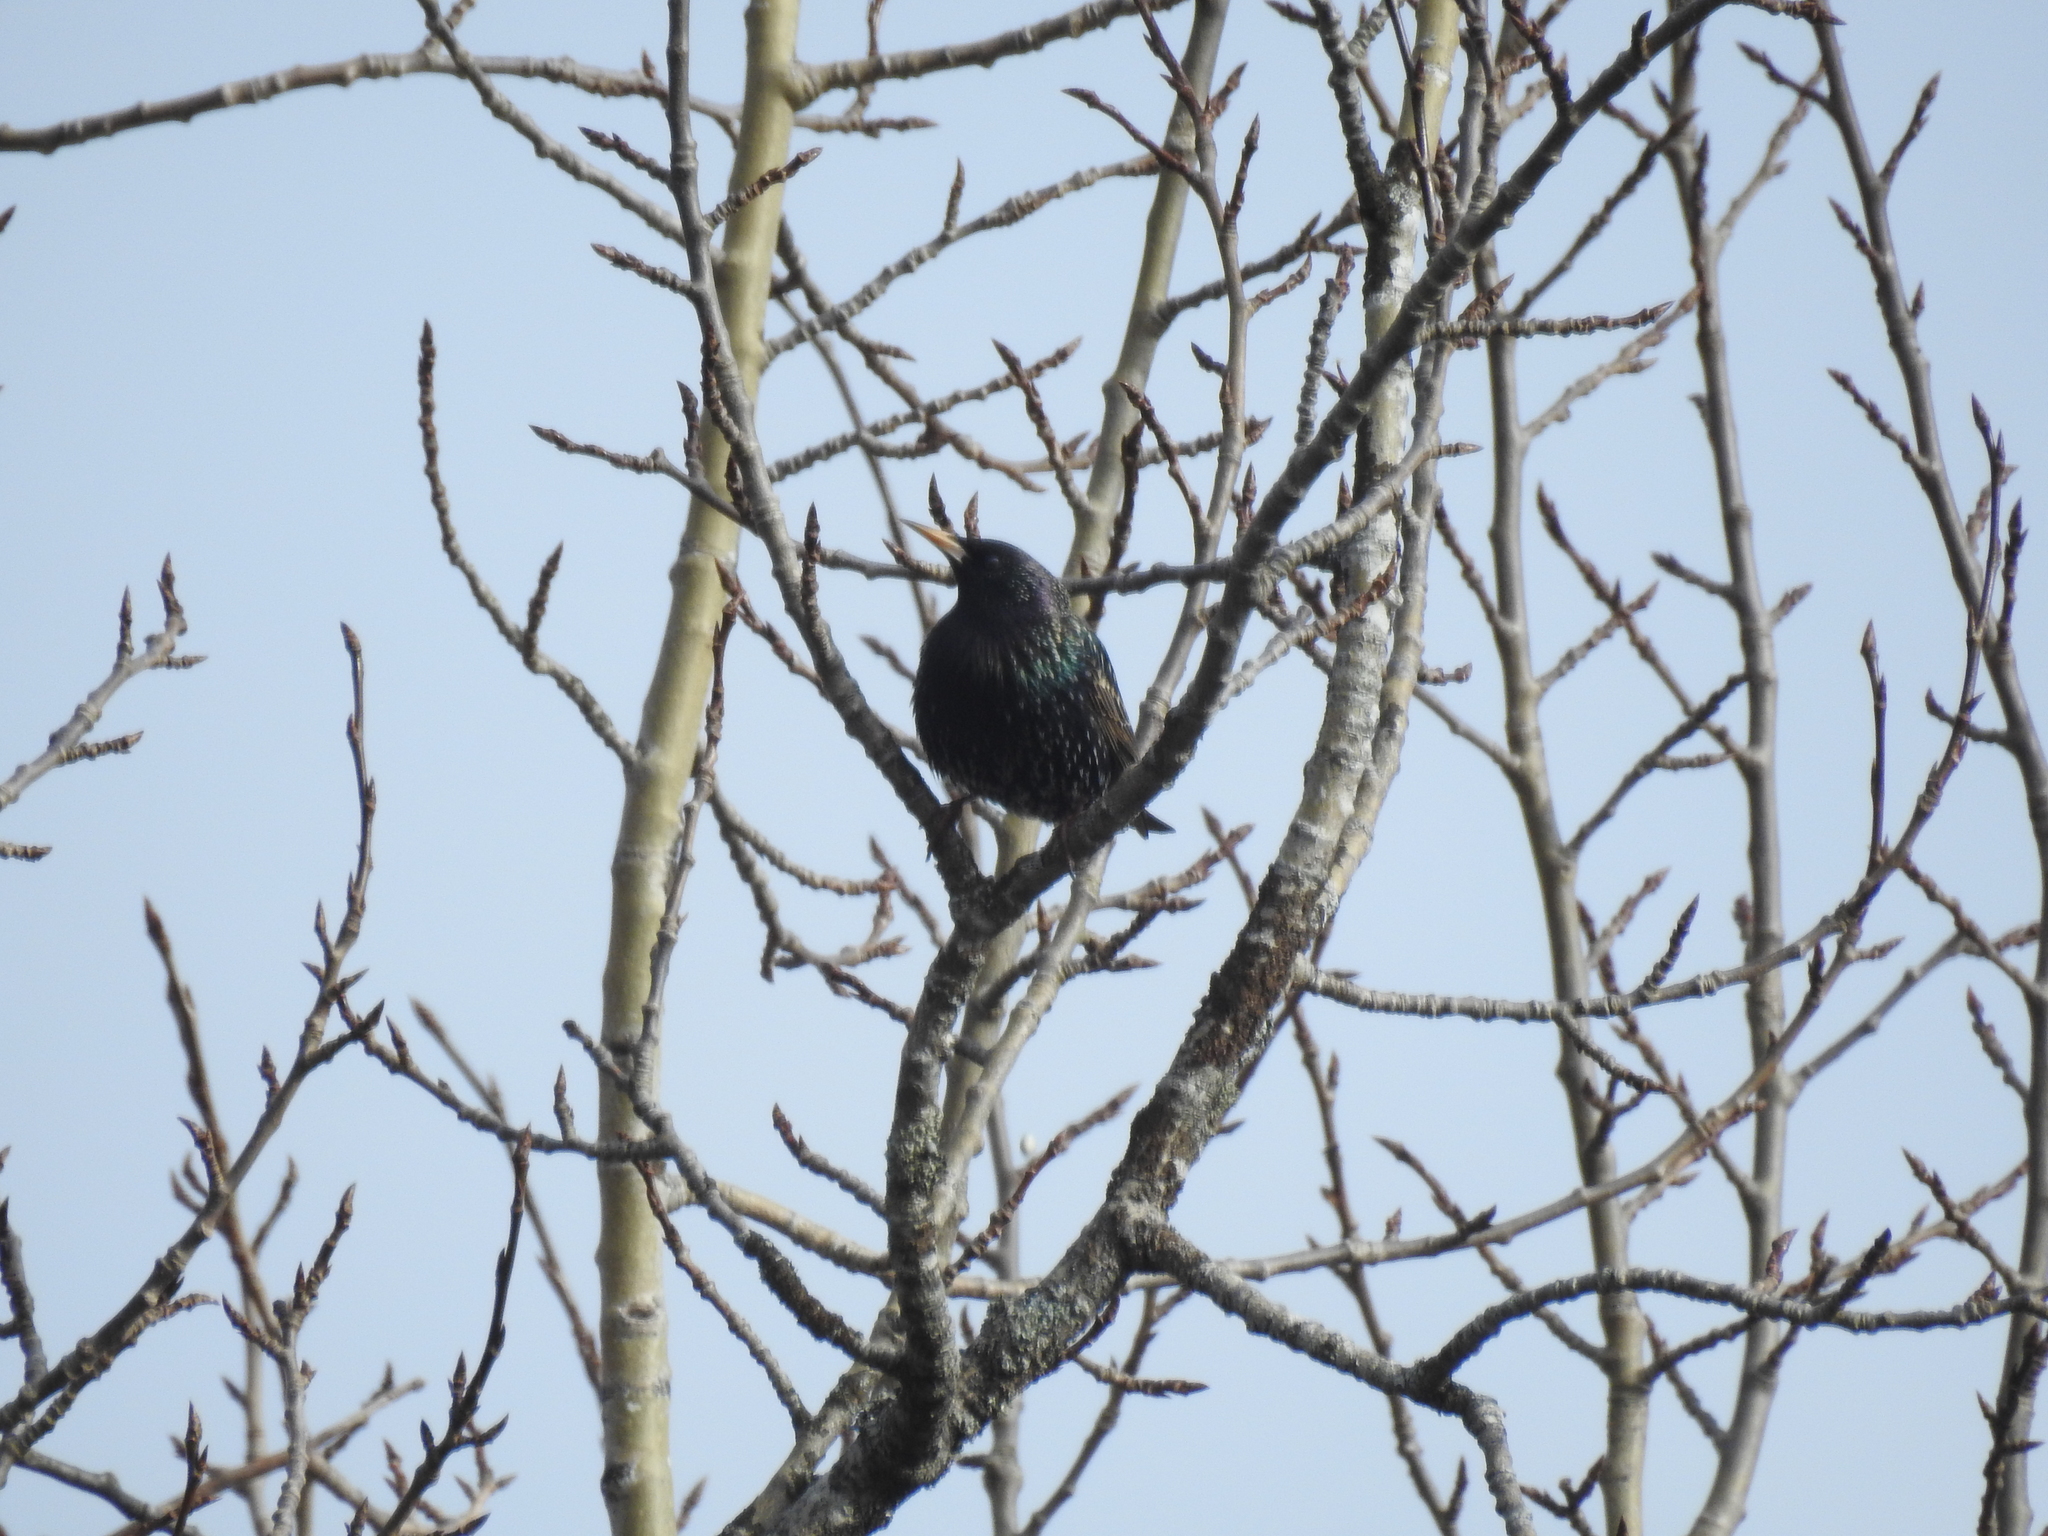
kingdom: Animalia
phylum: Chordata
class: Aves
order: Passeriformes
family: Sturnidae
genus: Sturnus
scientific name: Sturnus vulgaris
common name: Common starling
